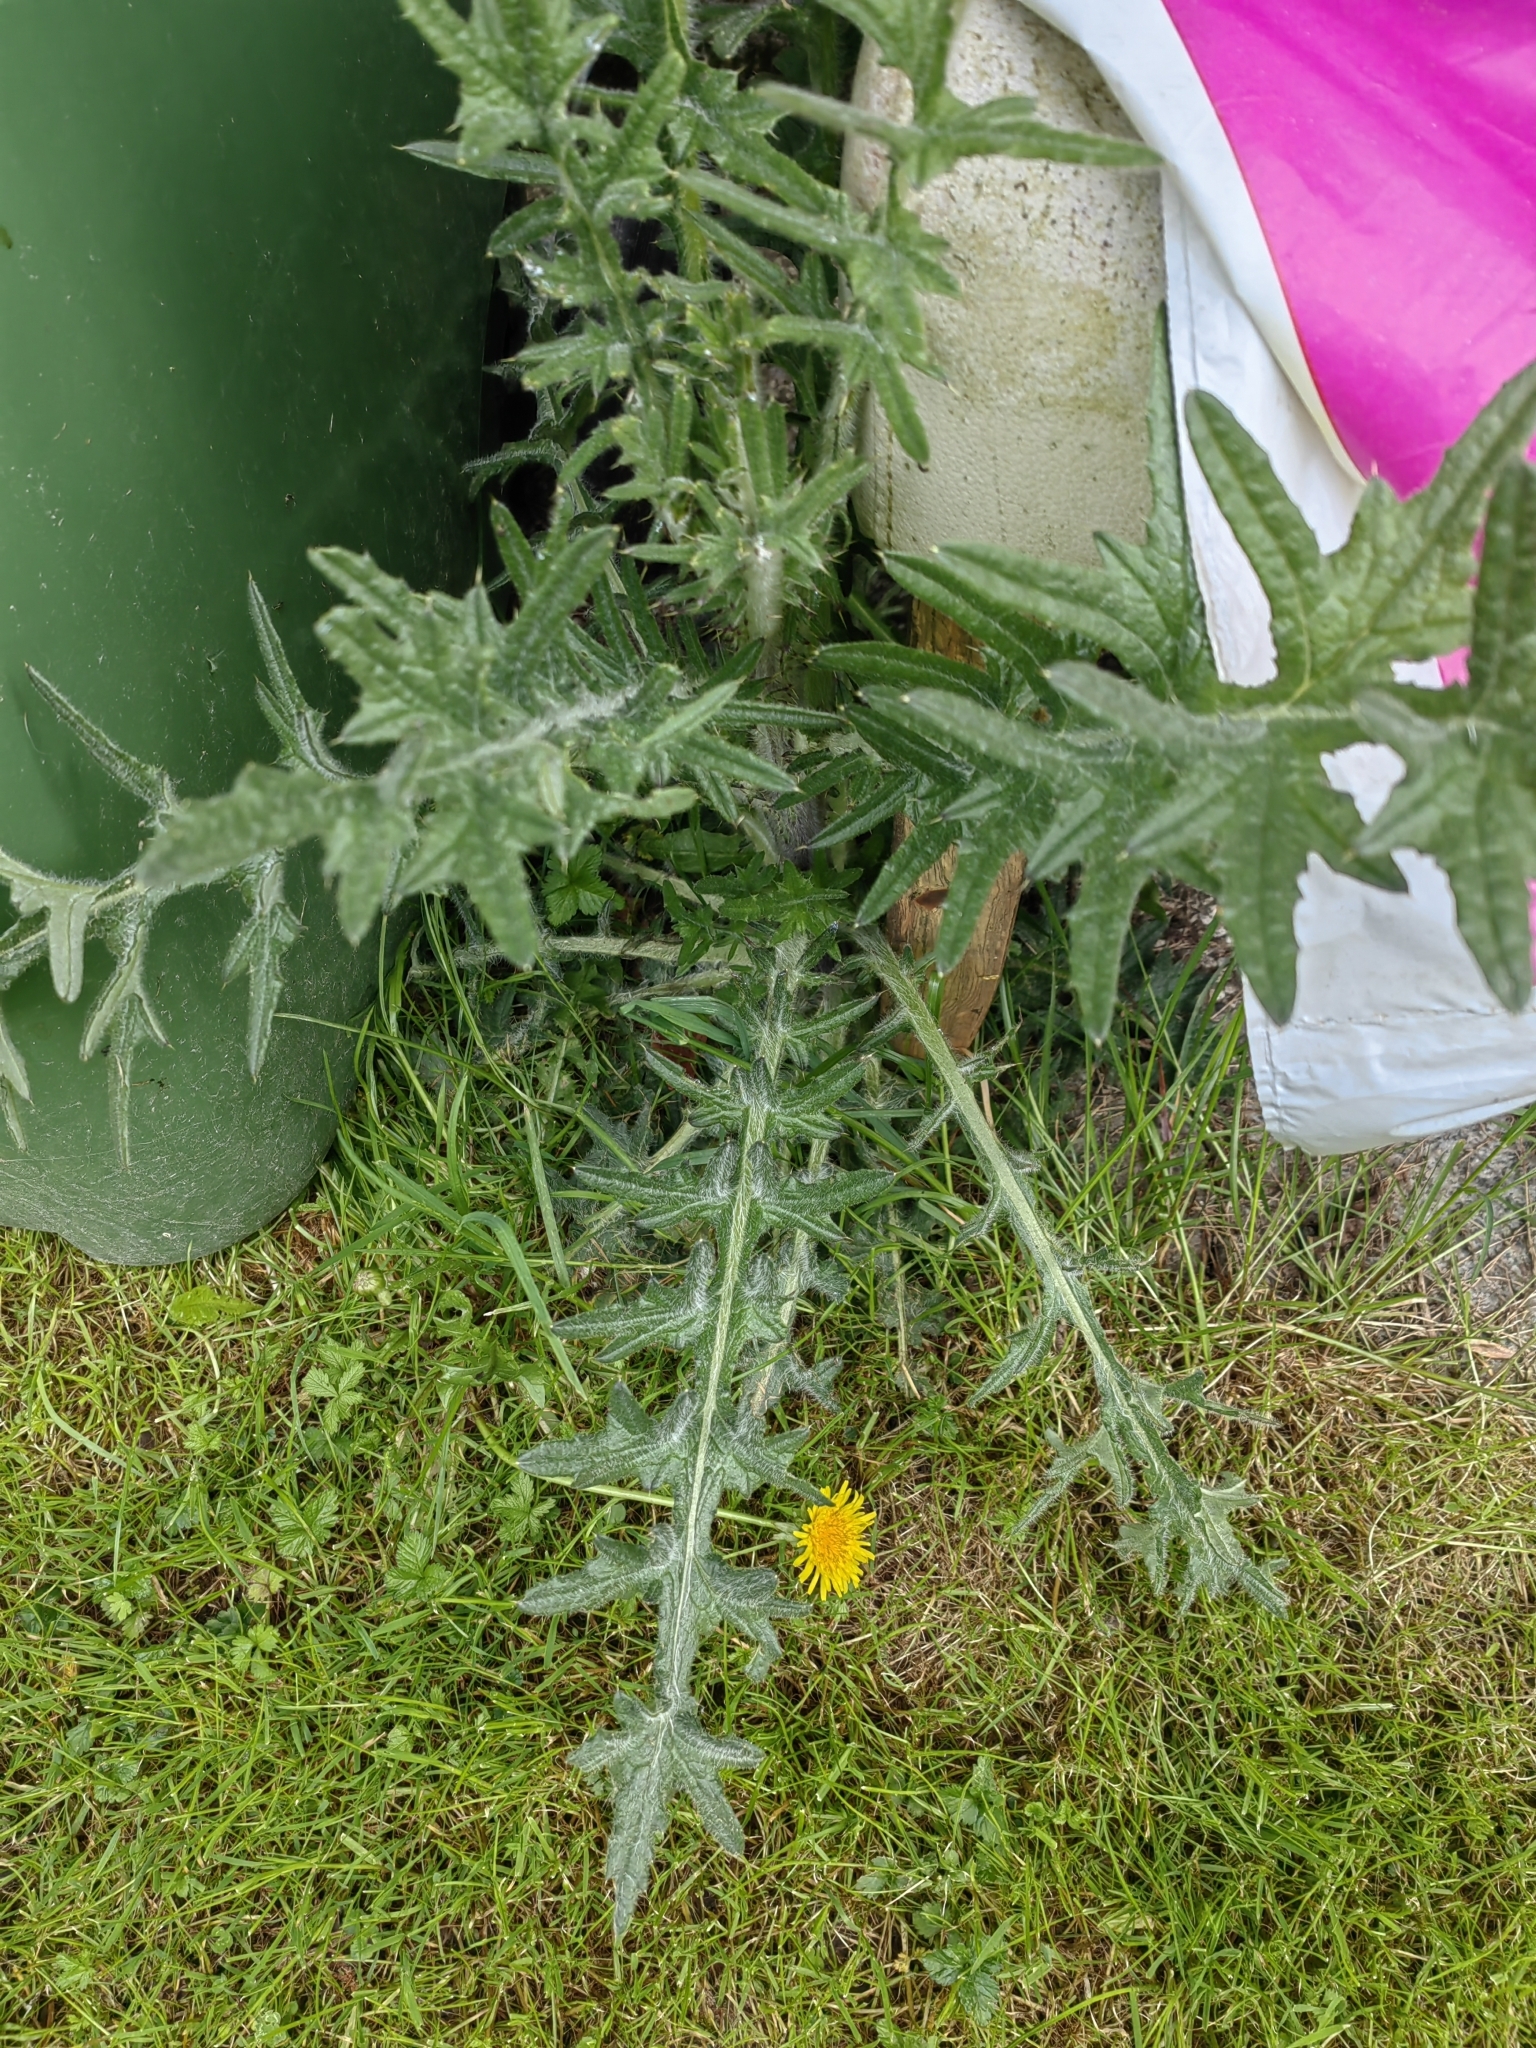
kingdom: Plantae
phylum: Tracheophyta
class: Magnoliopsida
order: Asterales
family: Asteraceae
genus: Cirsium
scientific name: Cirsium vulgare
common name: Bull thistle
